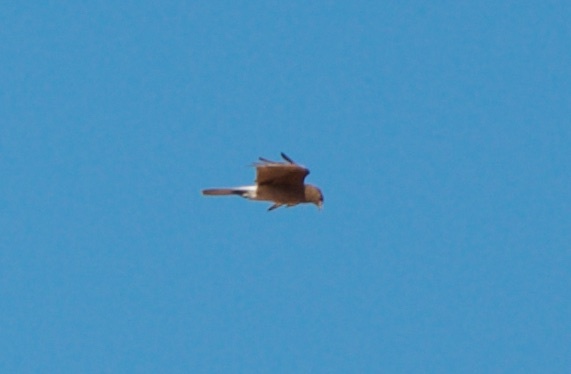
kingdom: Animalia
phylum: Chordata
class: Aves
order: Falconiformes
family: Falconidae
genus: Daptrius
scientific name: Daptrius
